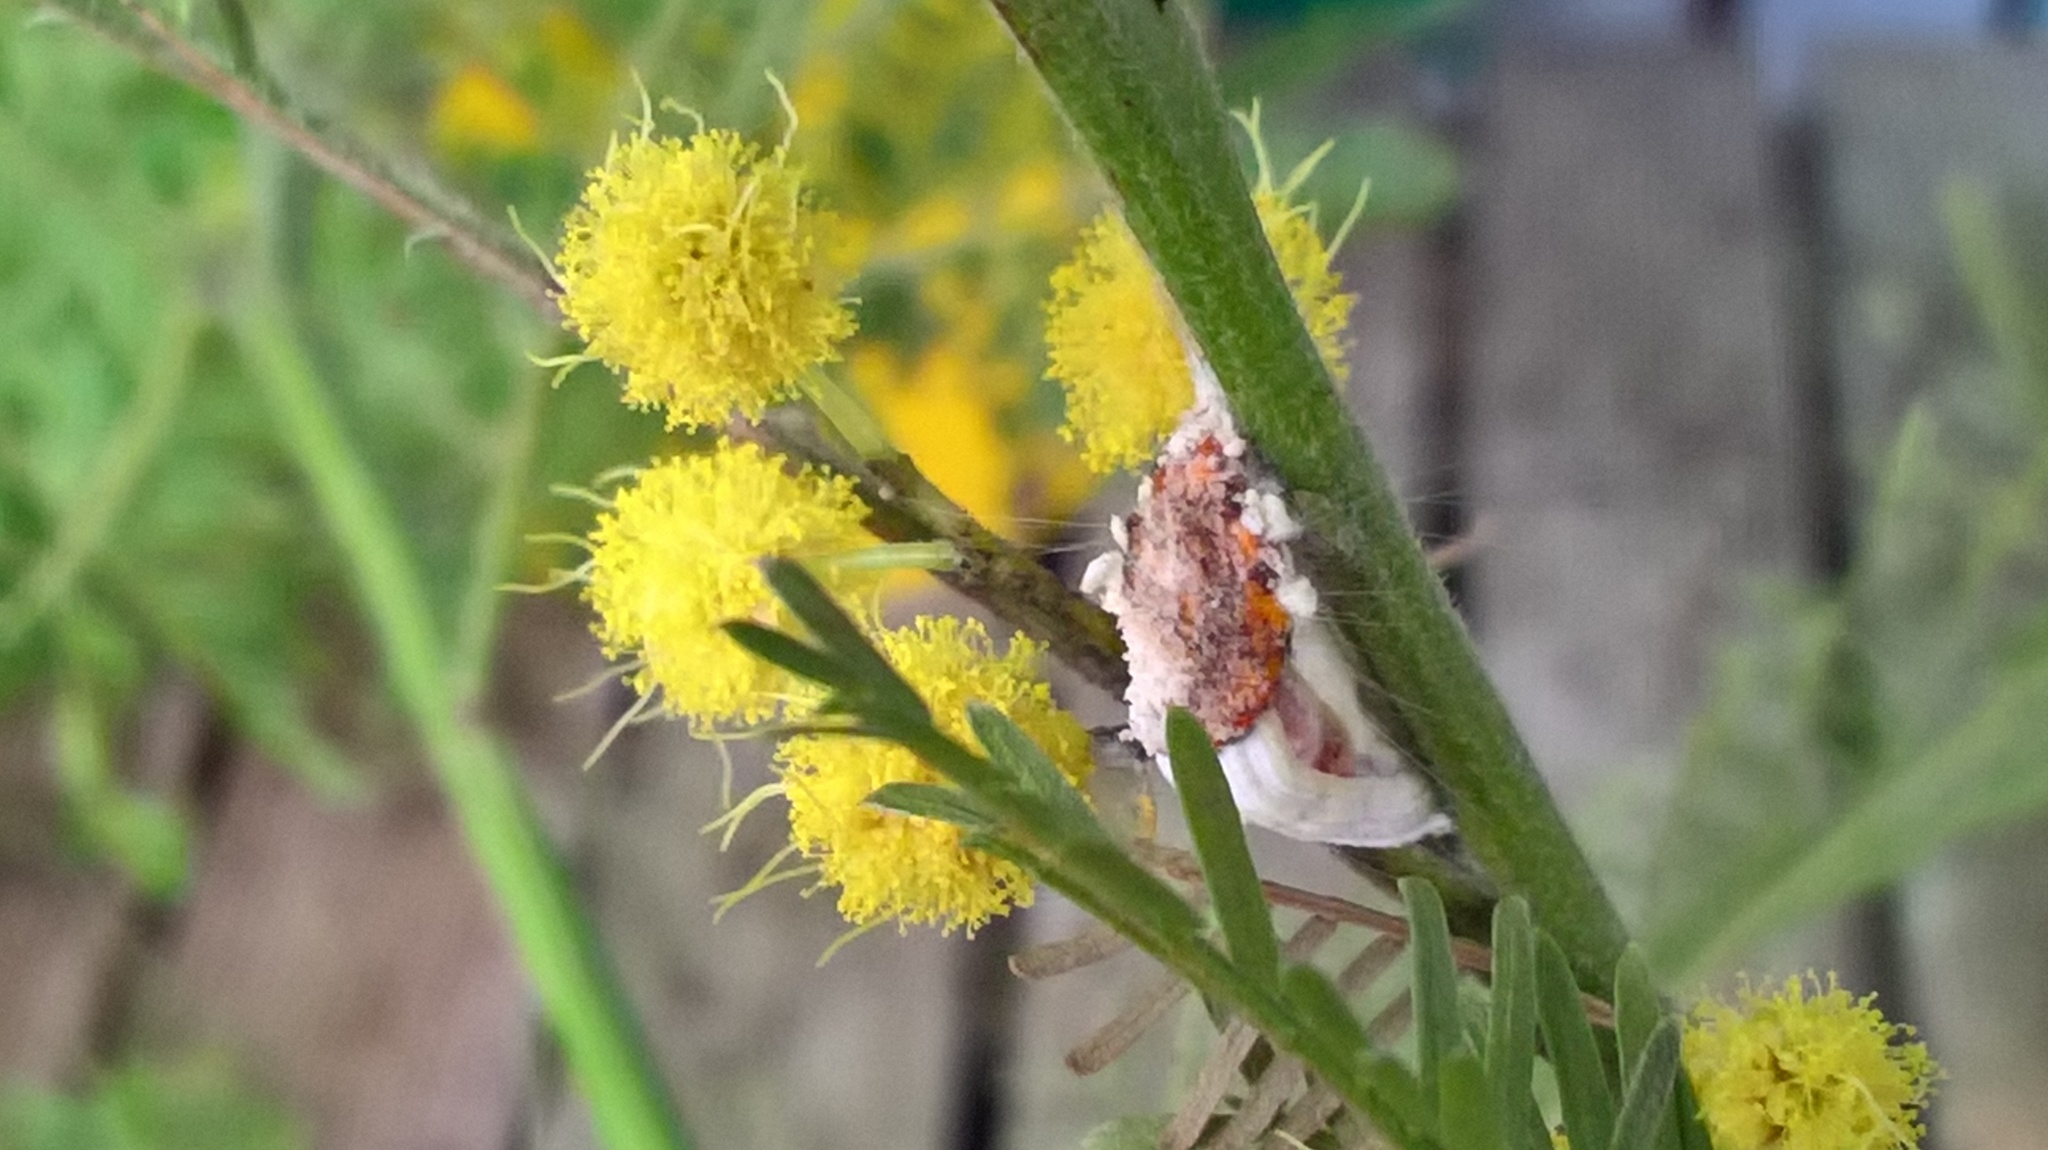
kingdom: Animalia
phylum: Arthropoda
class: Insecta
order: Hemiptera
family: Margarodidae
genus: Icerya
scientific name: Icerya purchasi
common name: Cottony cushion scale
